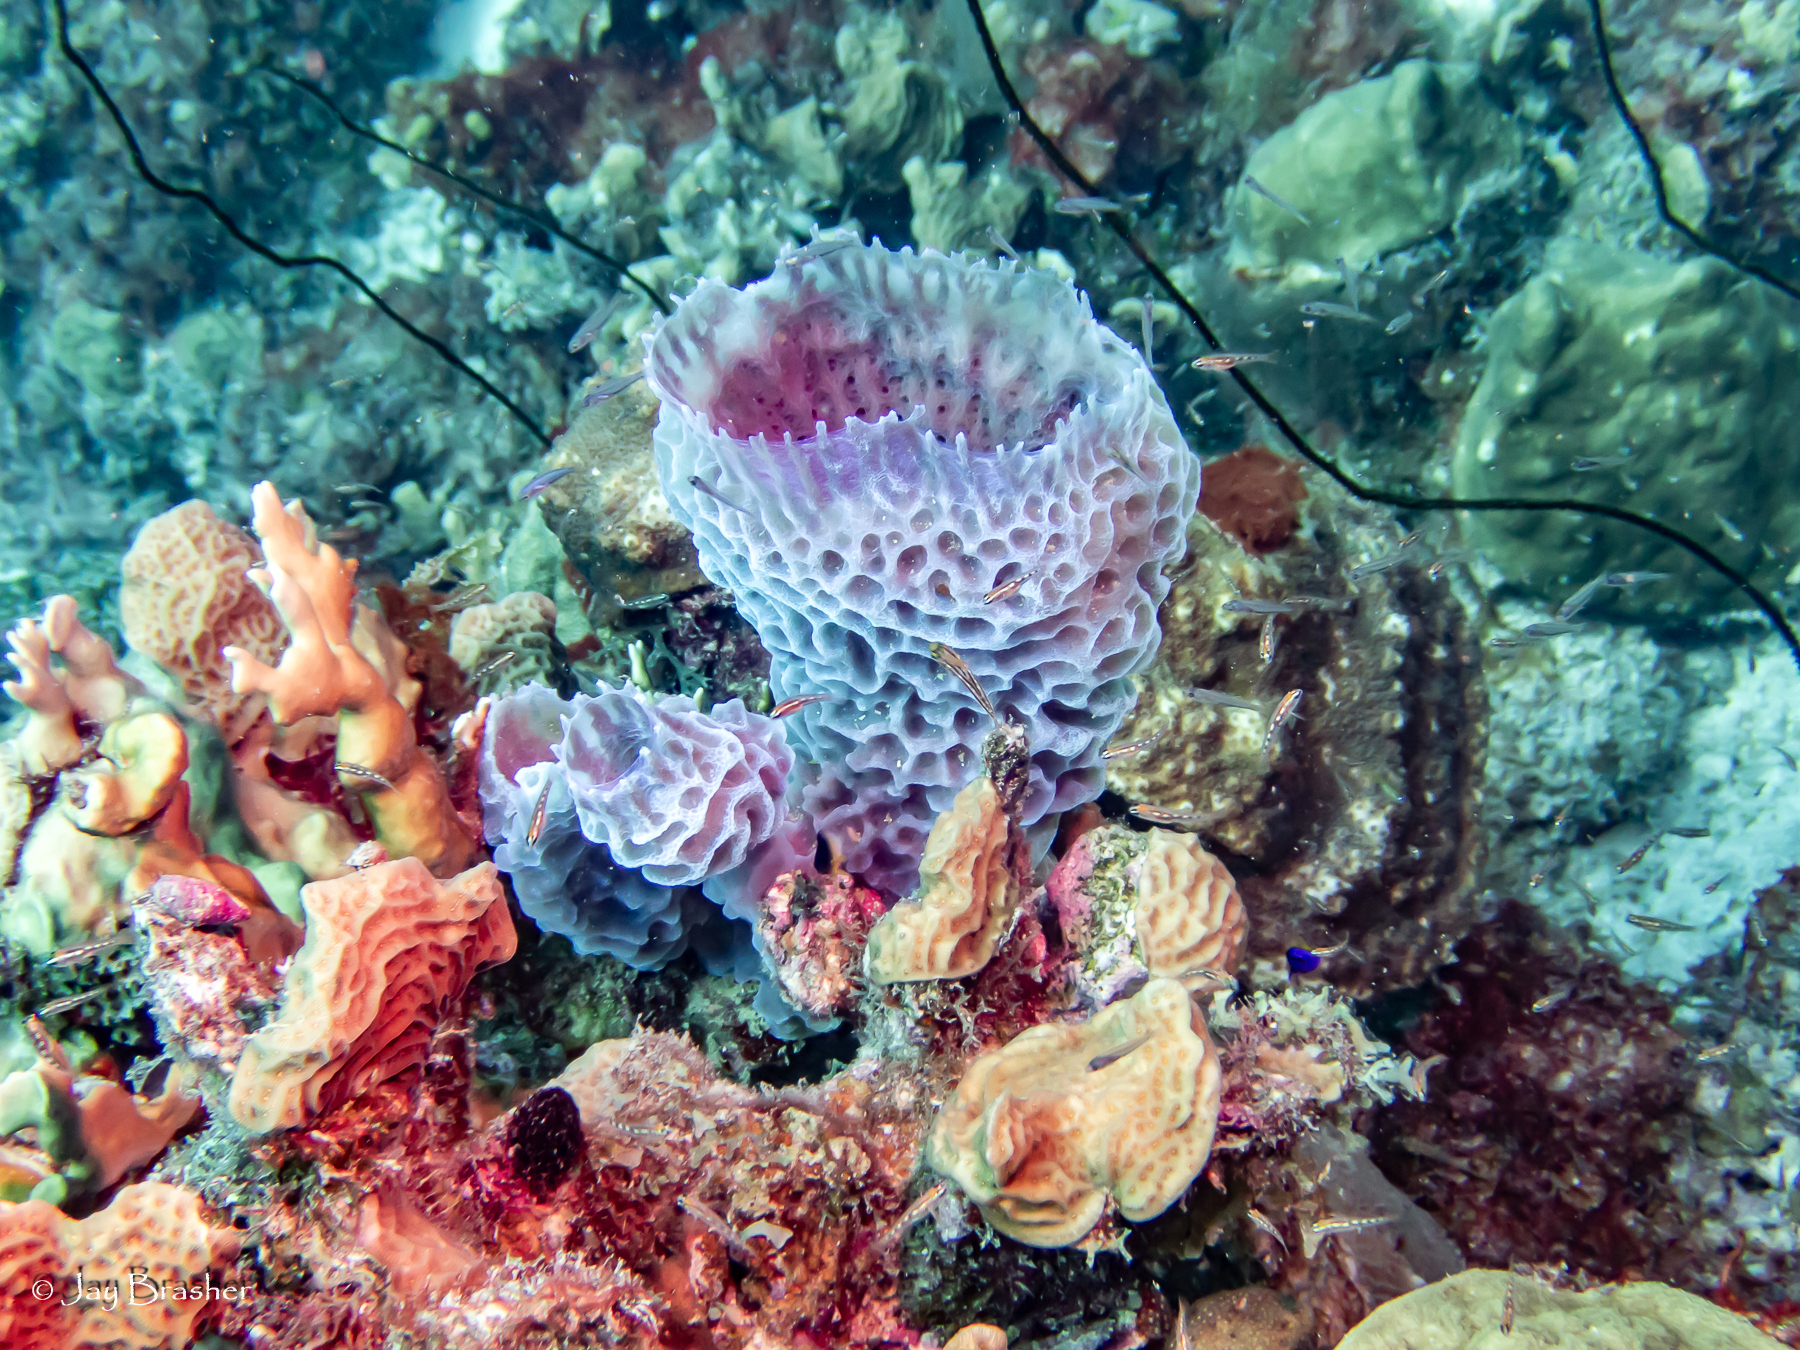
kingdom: Animalia
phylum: Cnidaria
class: Anthozoa
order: Scleractinia
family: Agariciidae
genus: Agaricia
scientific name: Agaricia agaricites
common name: Lettuce coral
